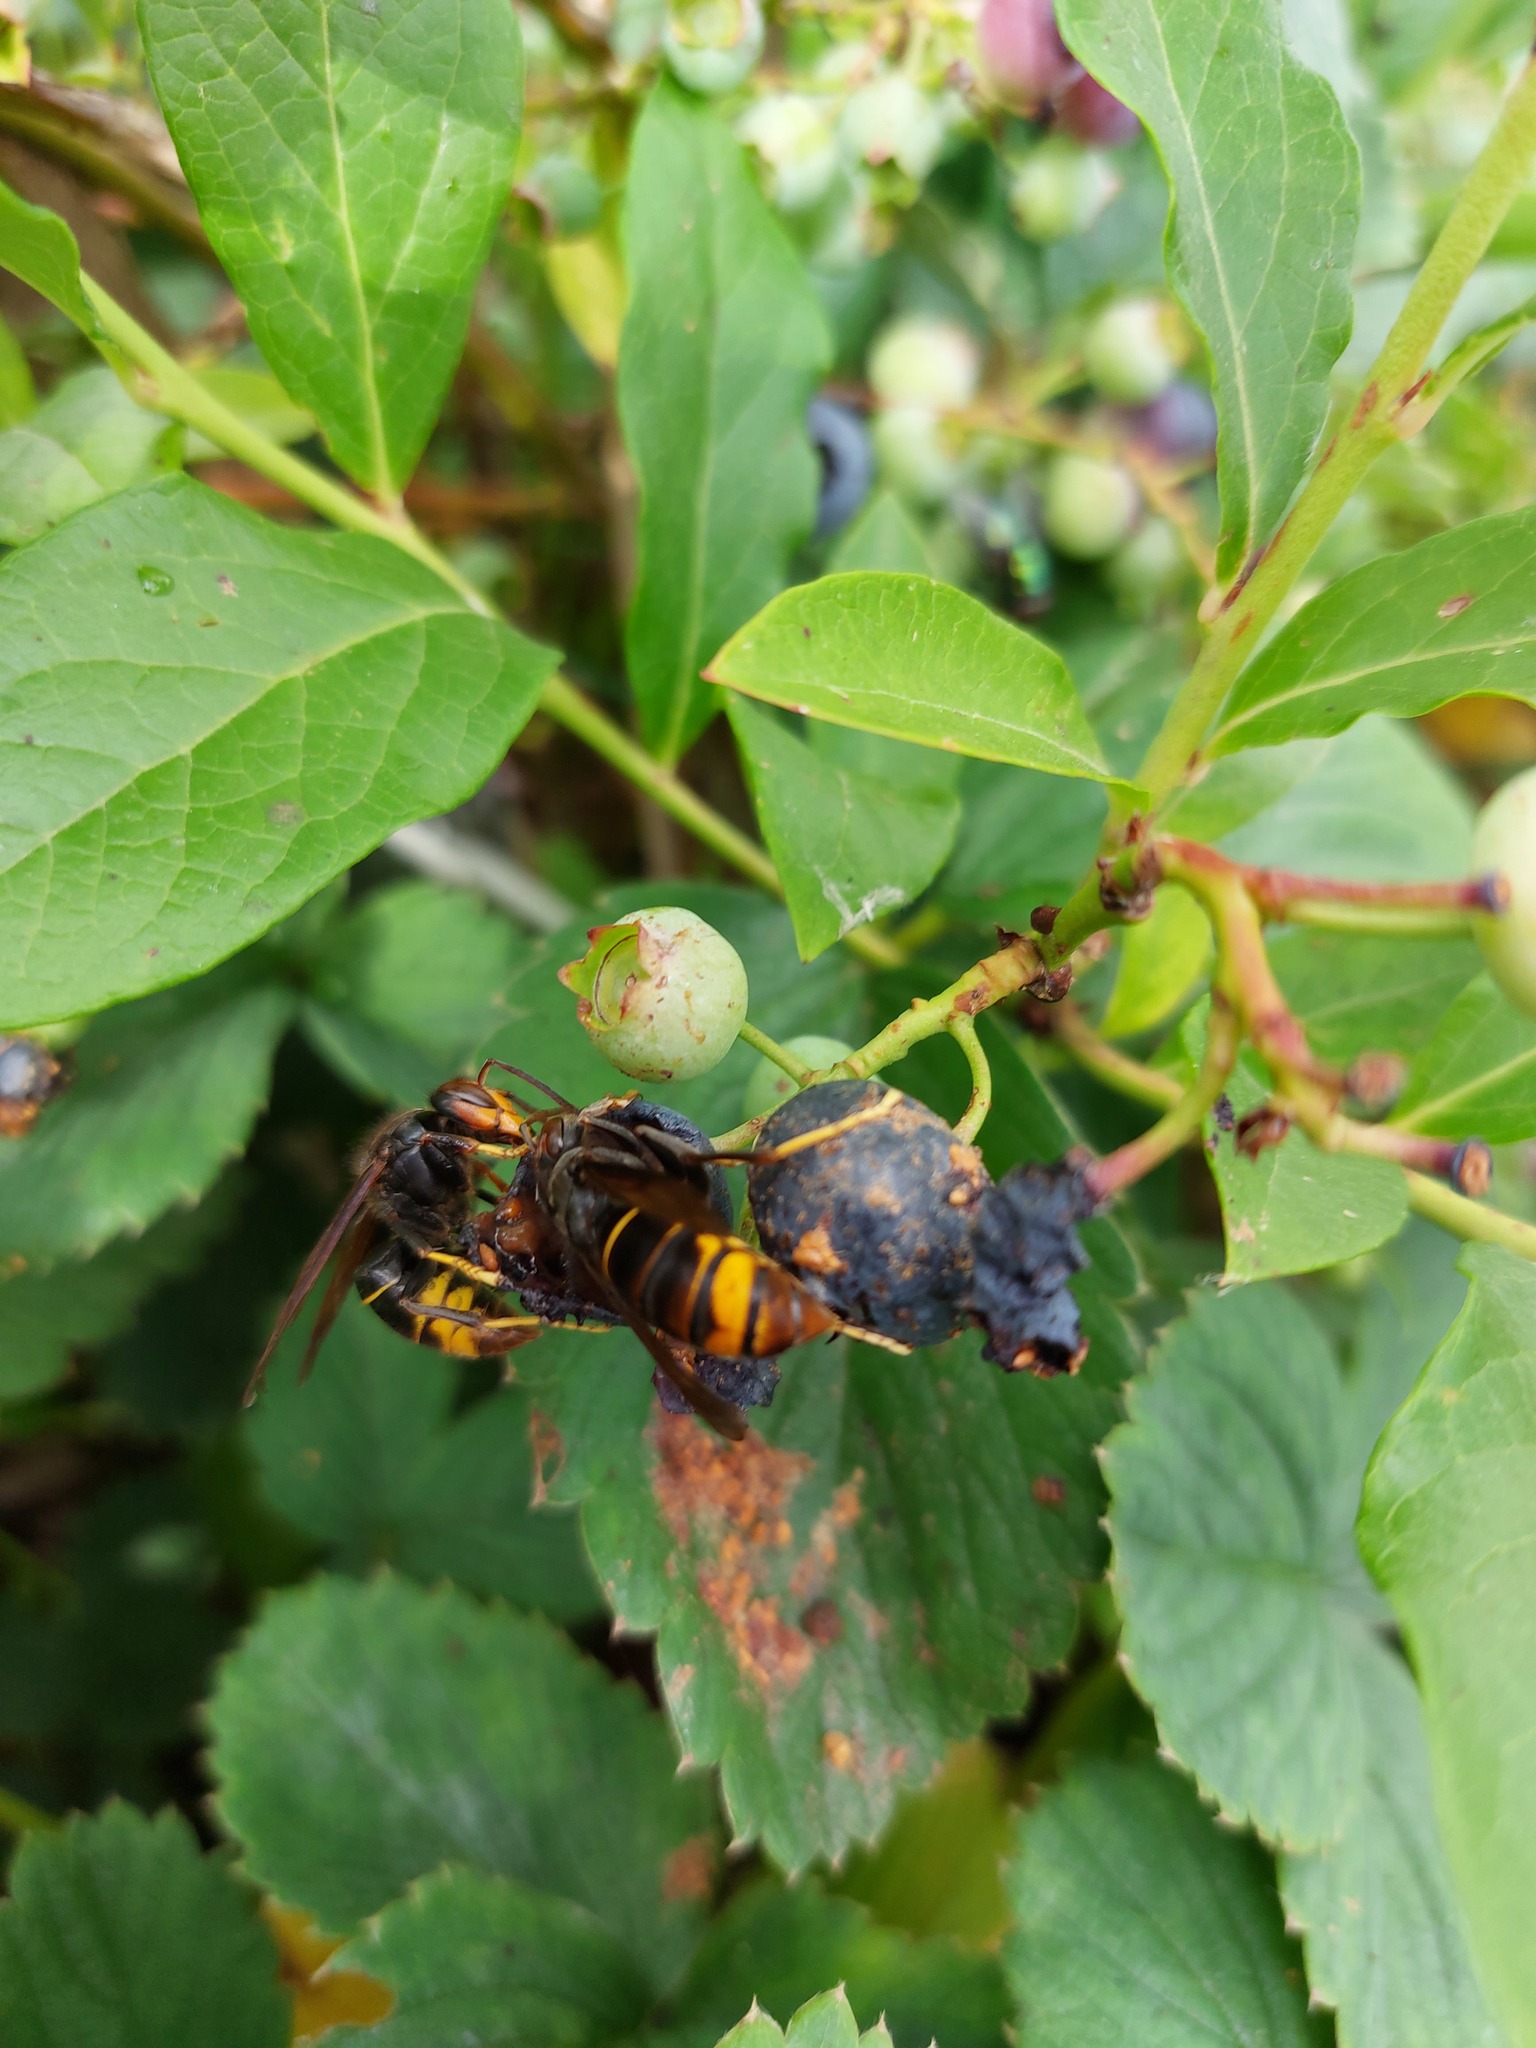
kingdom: Animalia
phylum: Arthropoda
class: Insecta
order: Hymenoptera
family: Vespidae
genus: Vespa
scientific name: Vespa velutina
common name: Asian hornet
